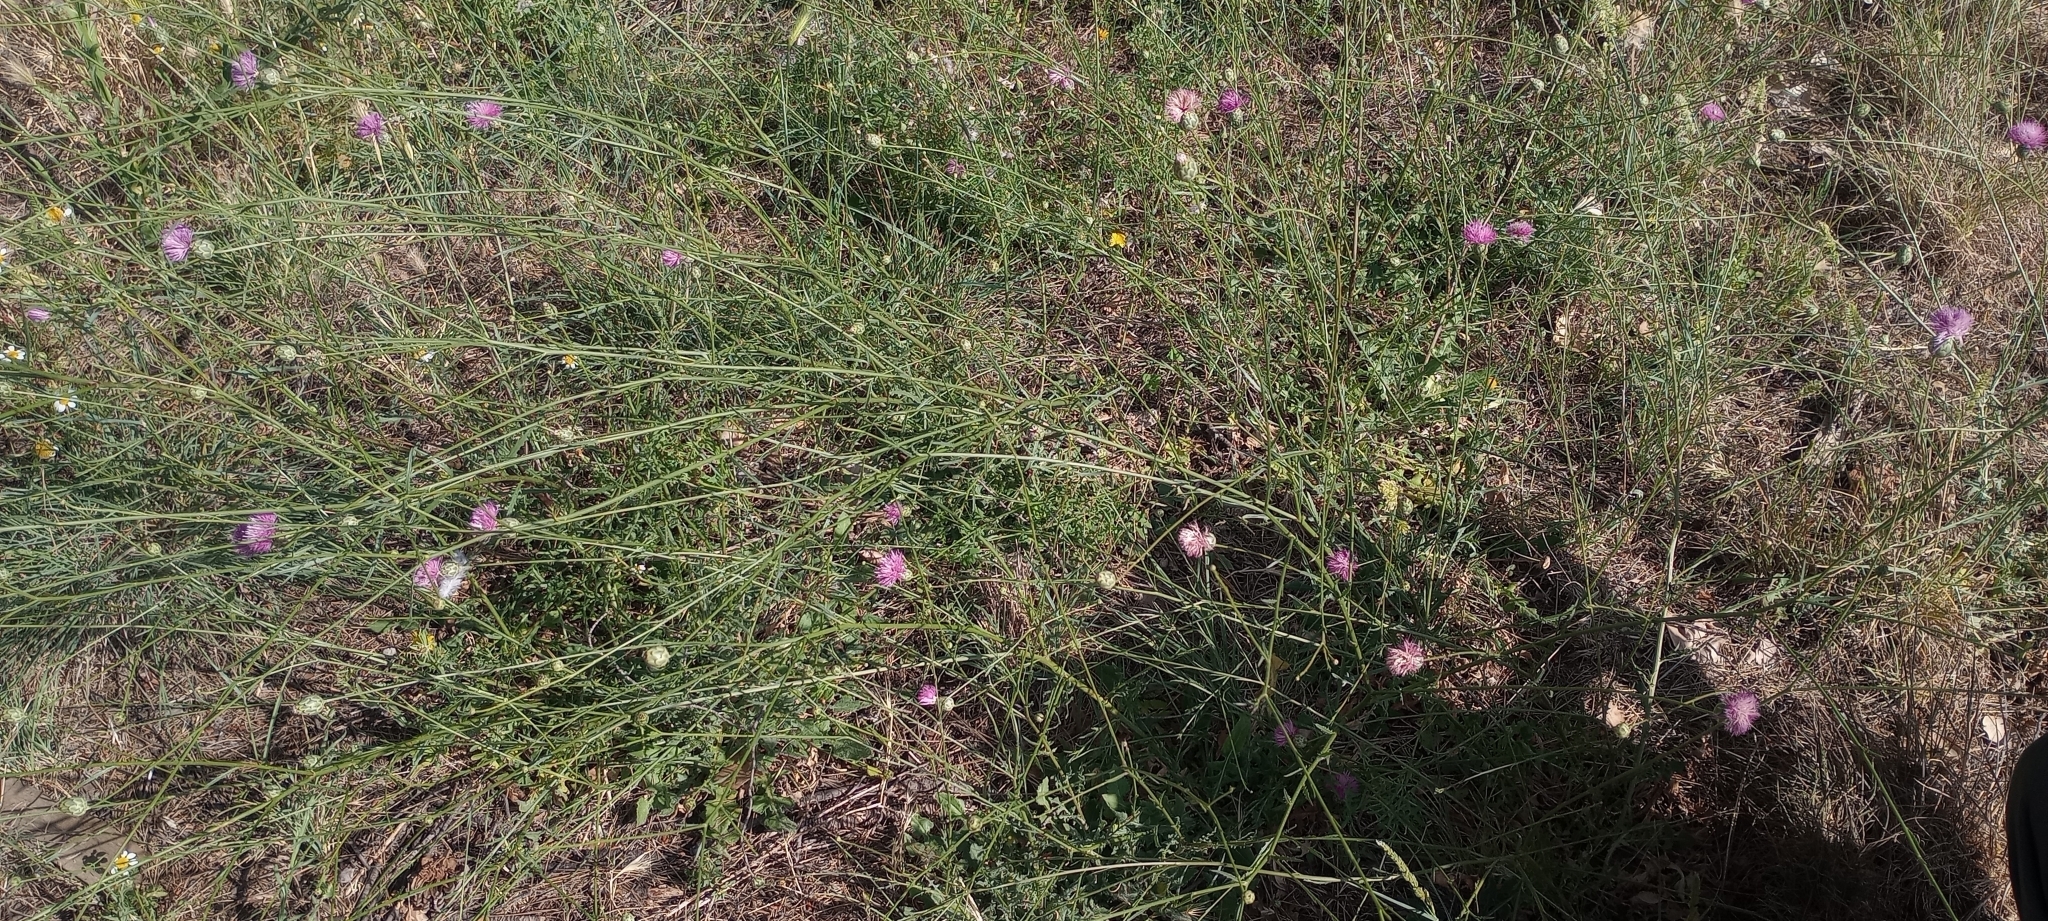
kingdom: Plantae
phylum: Tracheophyta
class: Magnoliopsida
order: Asterales
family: Asteraceae
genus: Mantisalca
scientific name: Mantisalca salmantica
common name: Dagger flower
